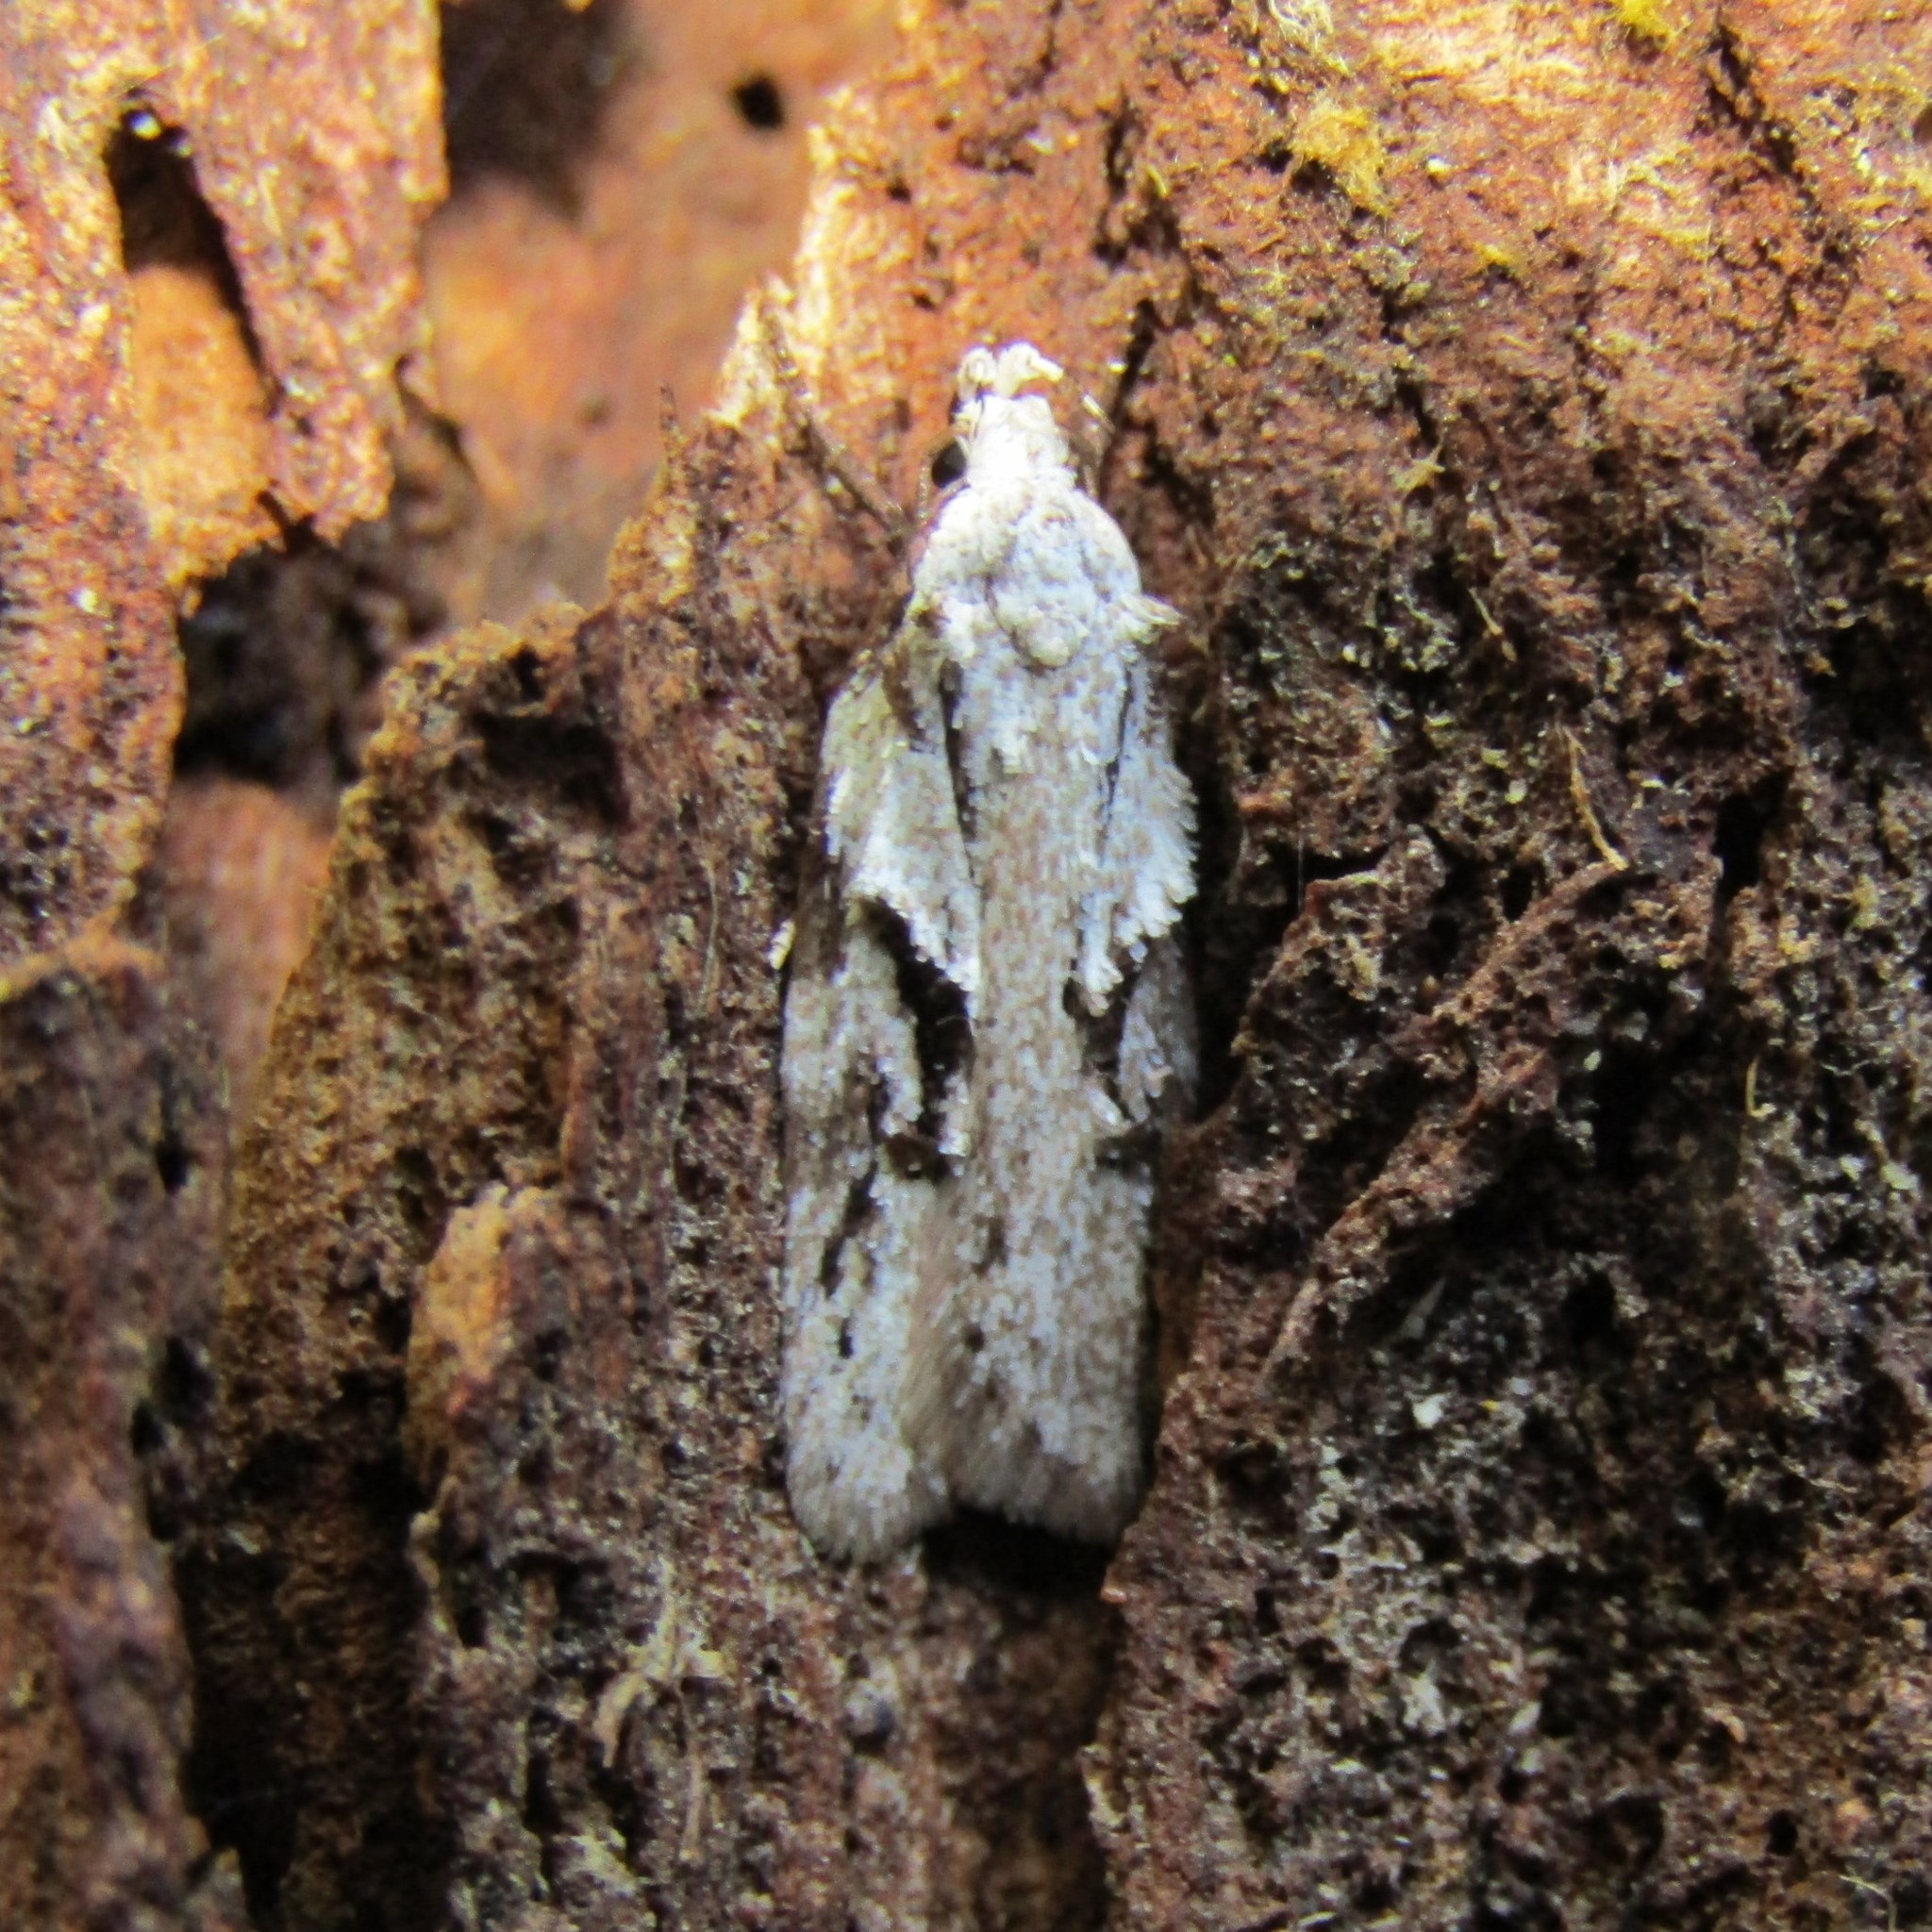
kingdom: Animalia
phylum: Arthropoda
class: Insecta
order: Lepidoptera
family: Oecophoridae
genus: Izatha
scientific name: Izatha mesoschista
